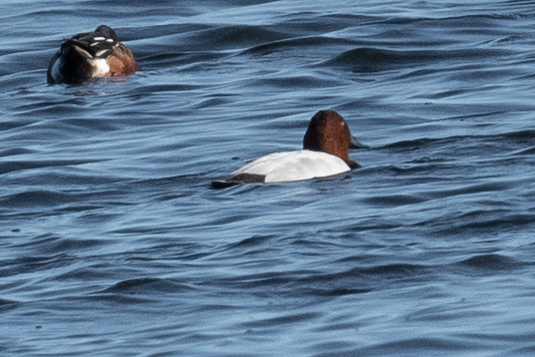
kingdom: Animalia
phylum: Chordata
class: Aves
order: Anseriformes
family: Anatidae
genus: Aythya
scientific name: Aythya valisineria
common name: Canvasback
